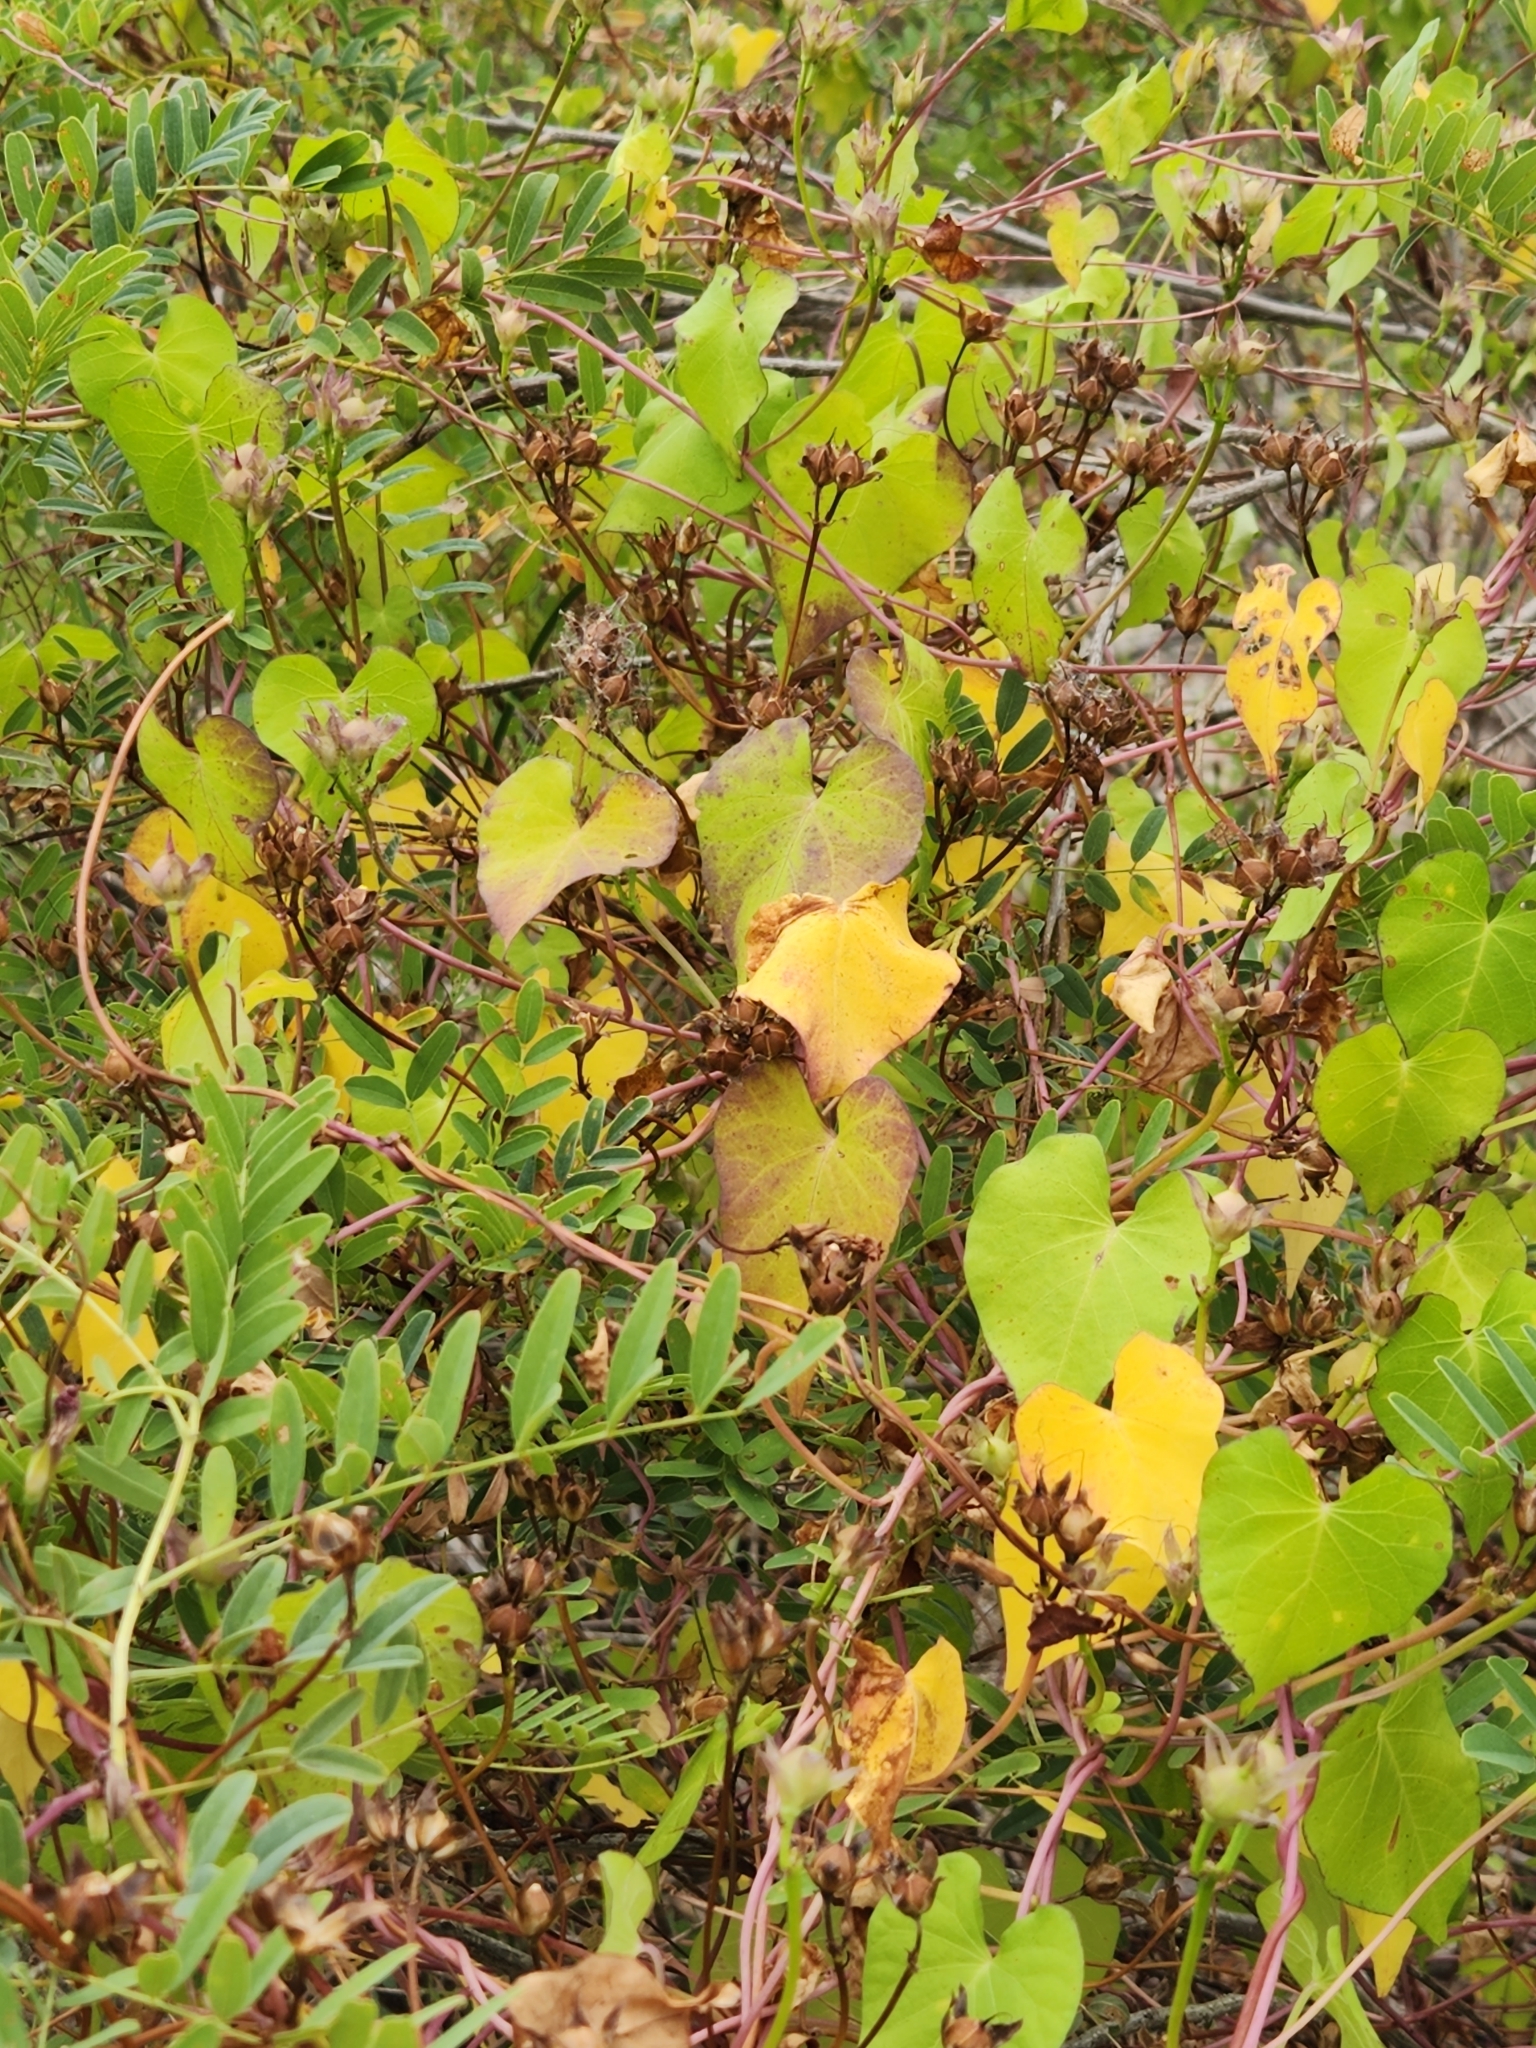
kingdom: Plantae
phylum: Tracheophyta
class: Magnoliopsida
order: Solanales
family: Convolvulaceae
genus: Ipomoea
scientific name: Ipomoea cordatotriloba
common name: Cotton morning glory
